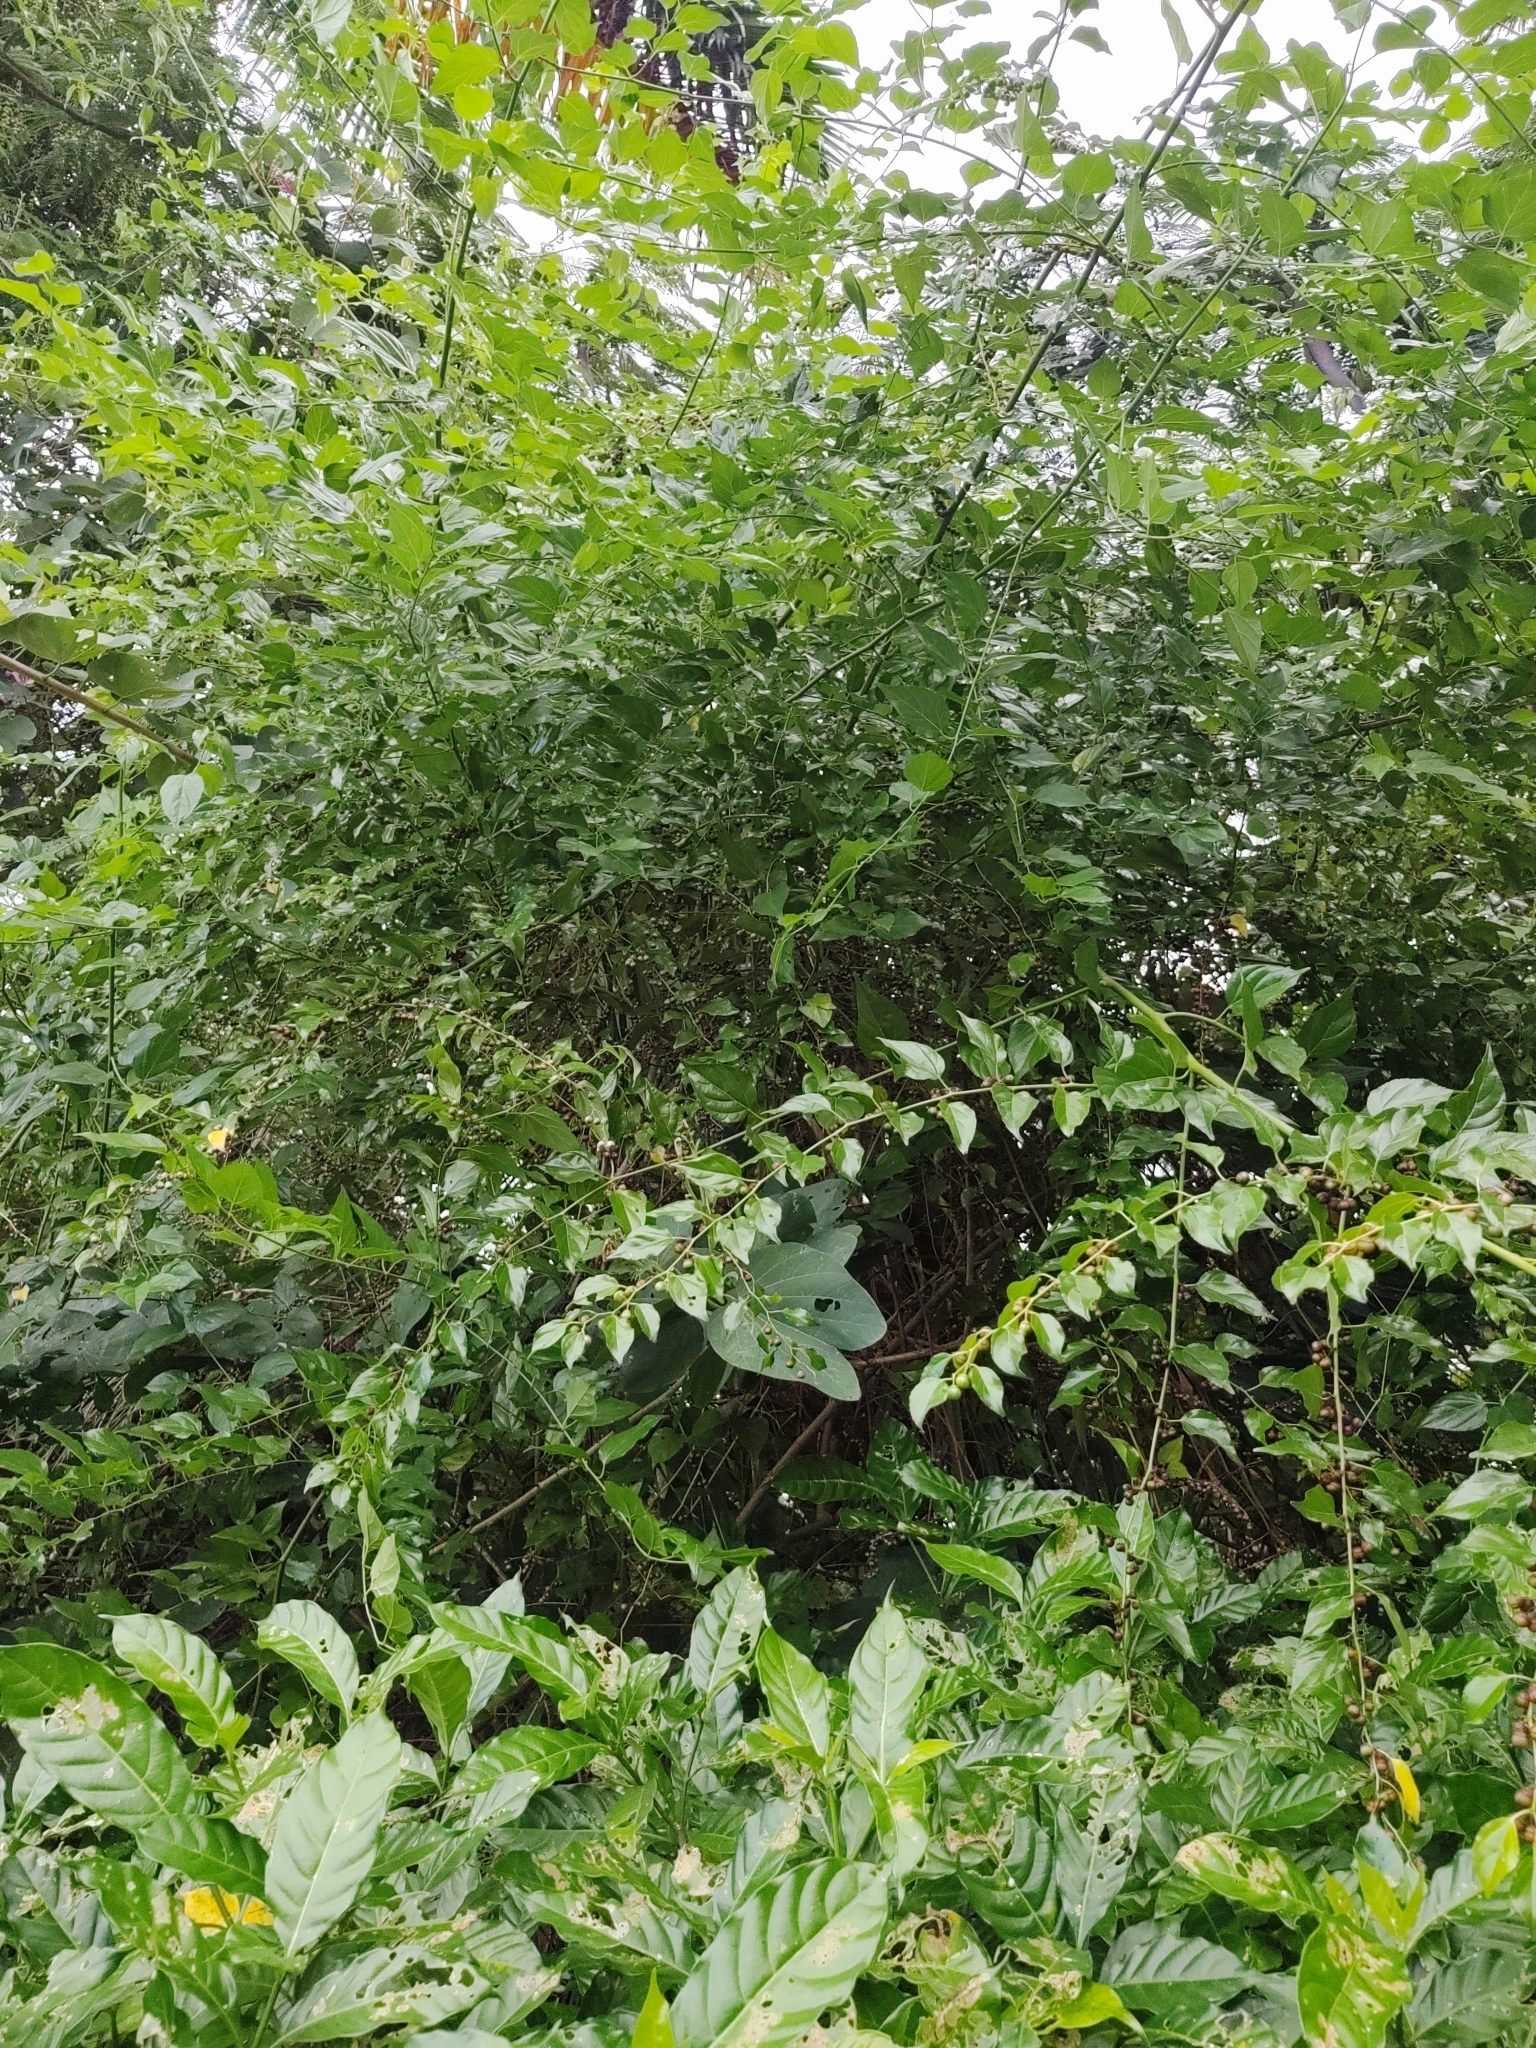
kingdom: Plantae
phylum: Tracheophyta
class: Magnoliopsida
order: Rosales
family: Rhamnaceae
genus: Colubrina
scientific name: Colubrina asiatica
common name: Asian nakedwood
